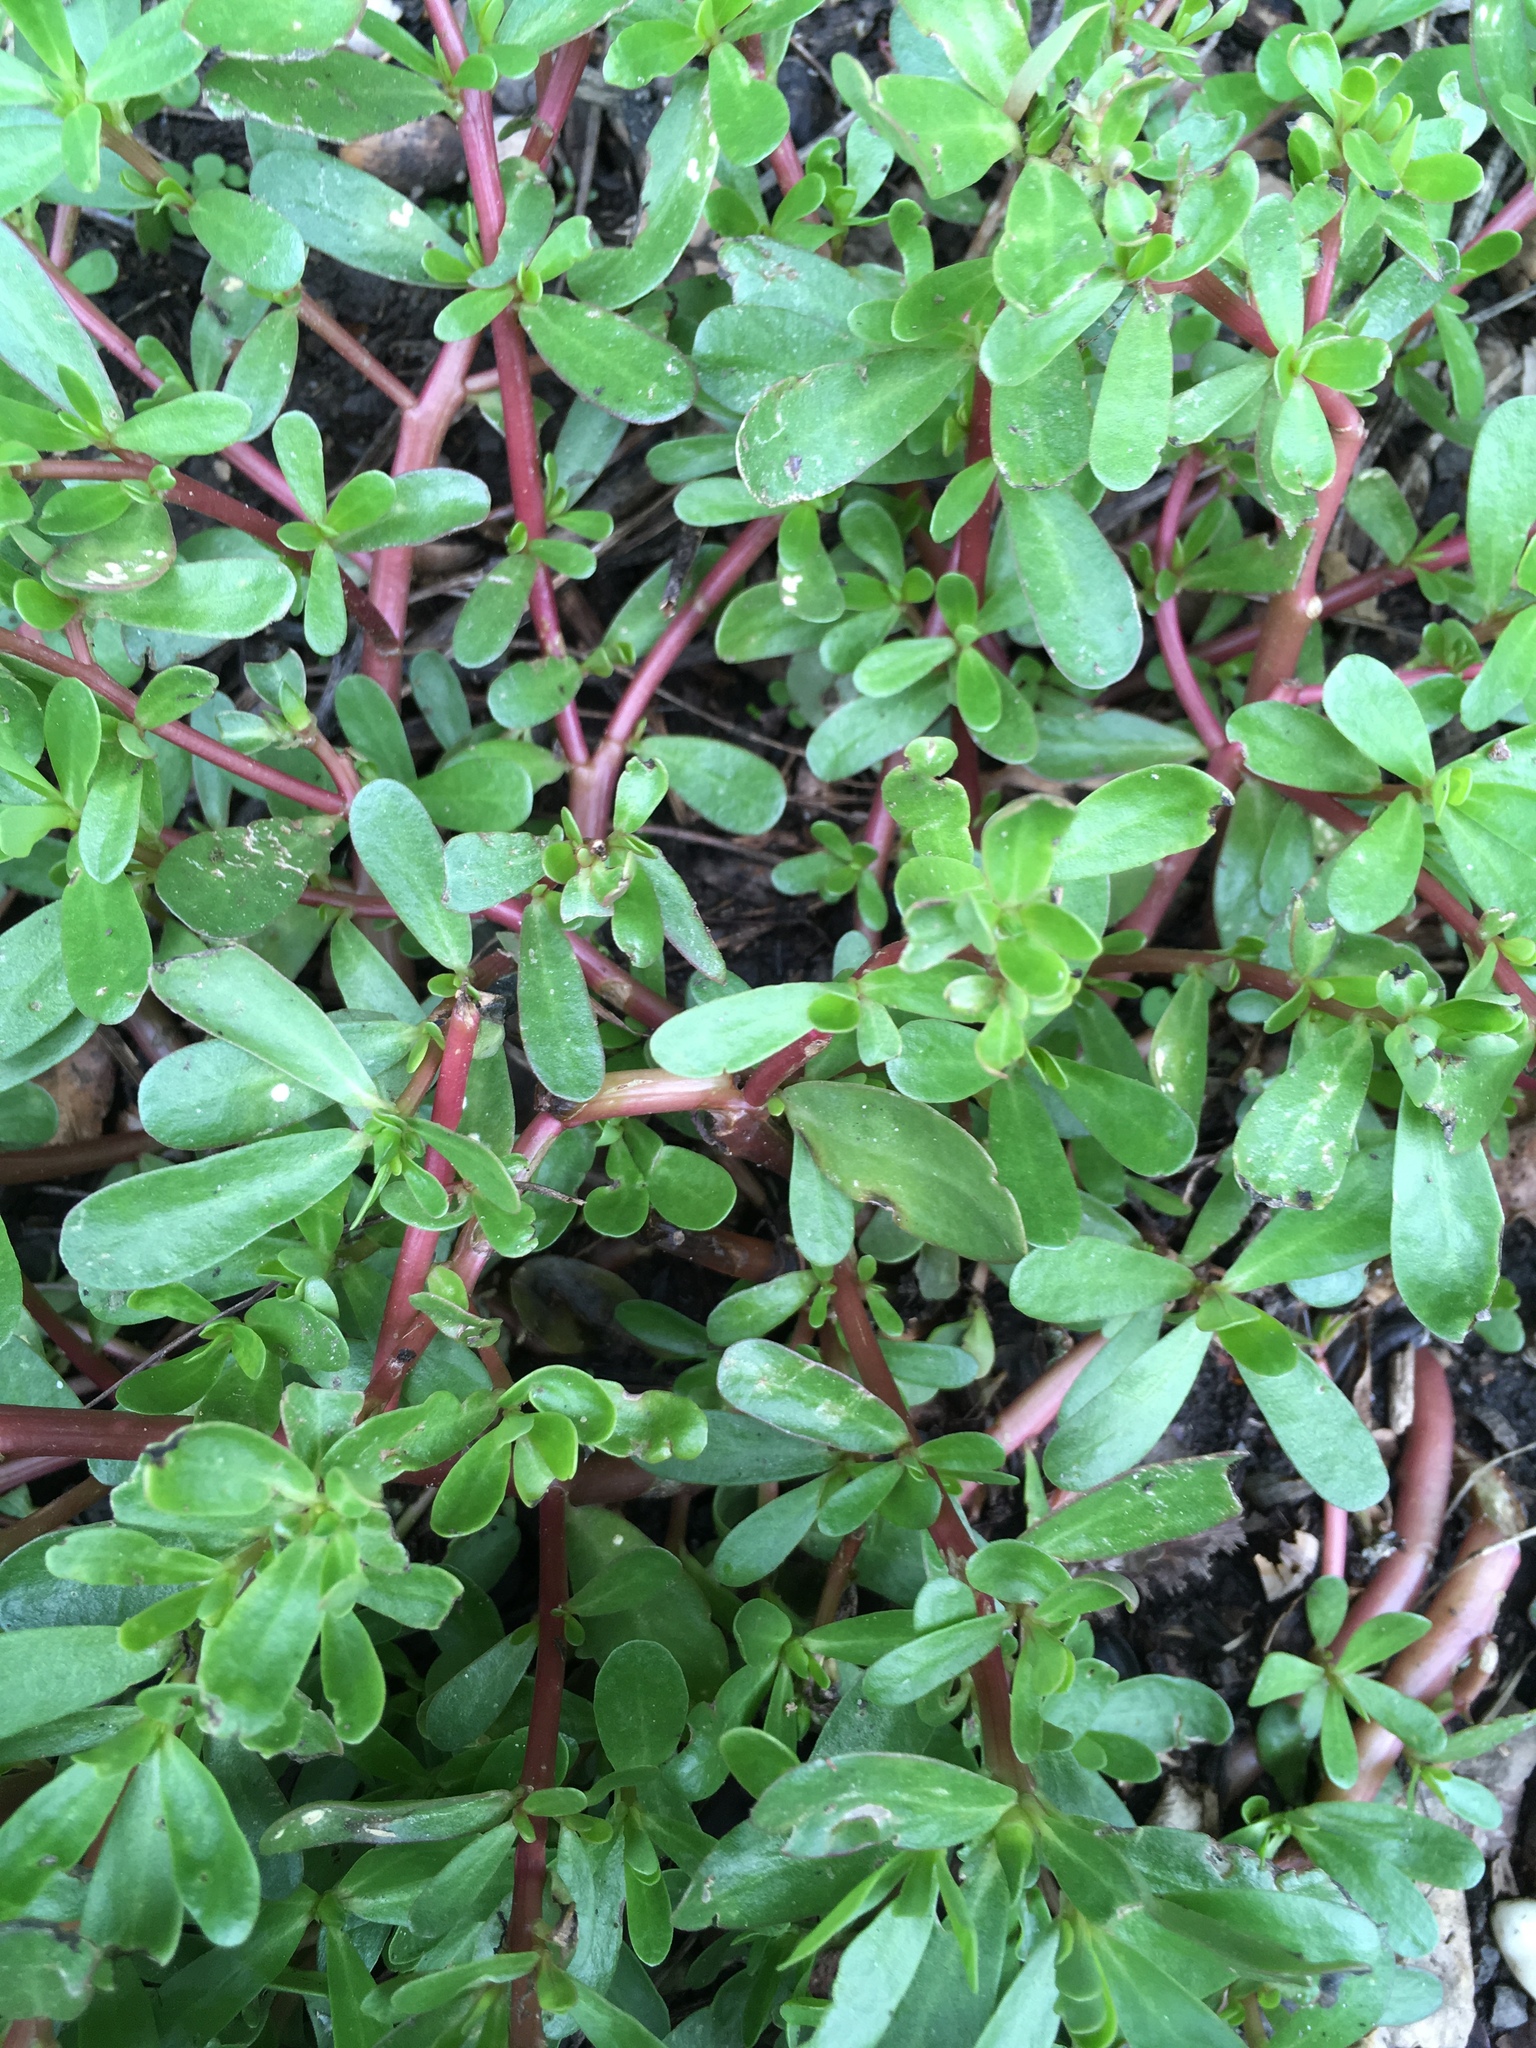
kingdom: Plantae
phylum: Tracheophyta
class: Magnoliopsida
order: Caryophyllales
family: Portulacaceae
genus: Portulaca
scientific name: Portulaca oleracea
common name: Common purslane
